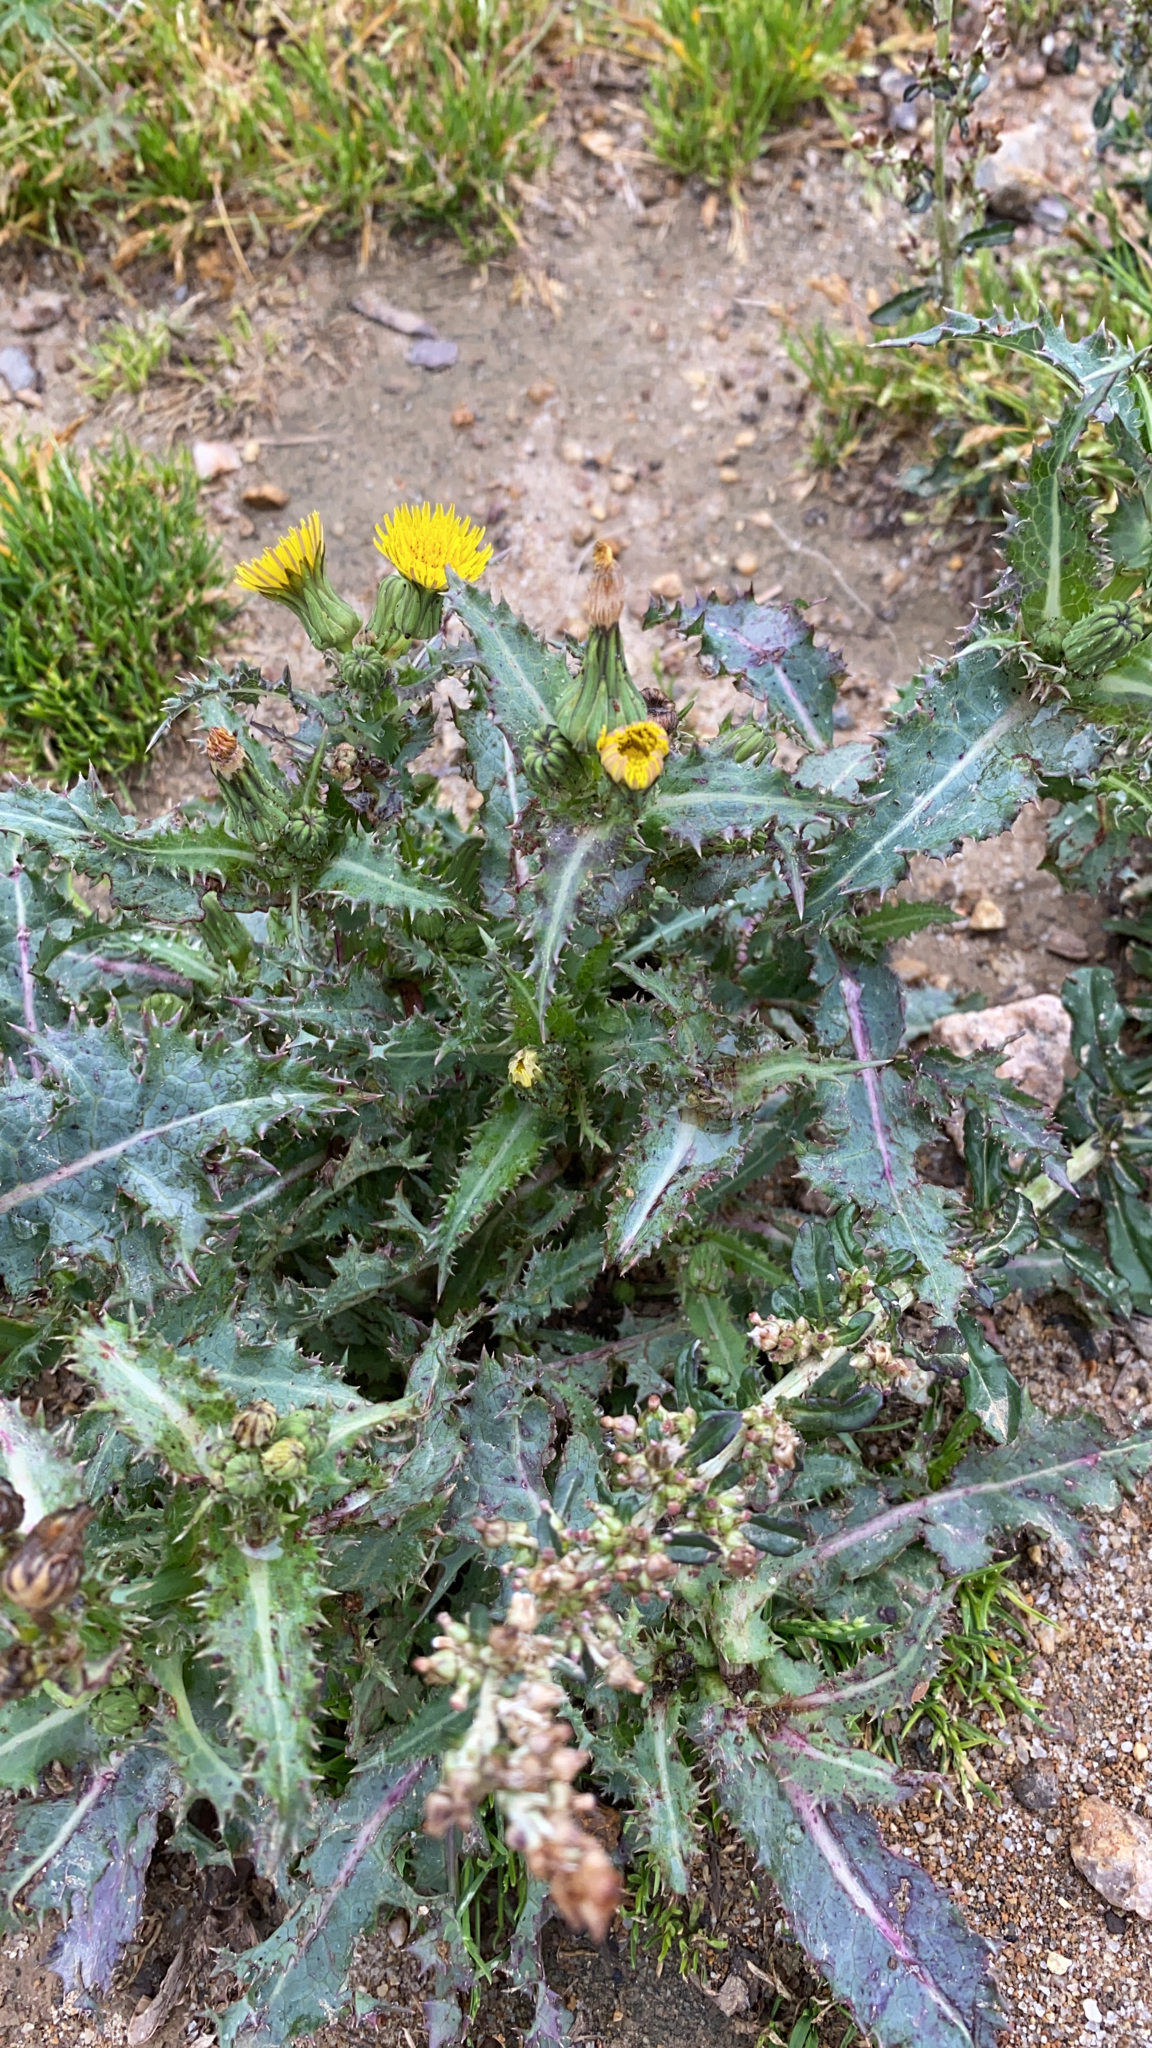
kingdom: Plantae
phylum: Tracheophyta
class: Magnoliopsida
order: Asterales
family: Asteraceae
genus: Sonchus
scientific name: Sonchus asper
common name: Prickly sow-thistle
